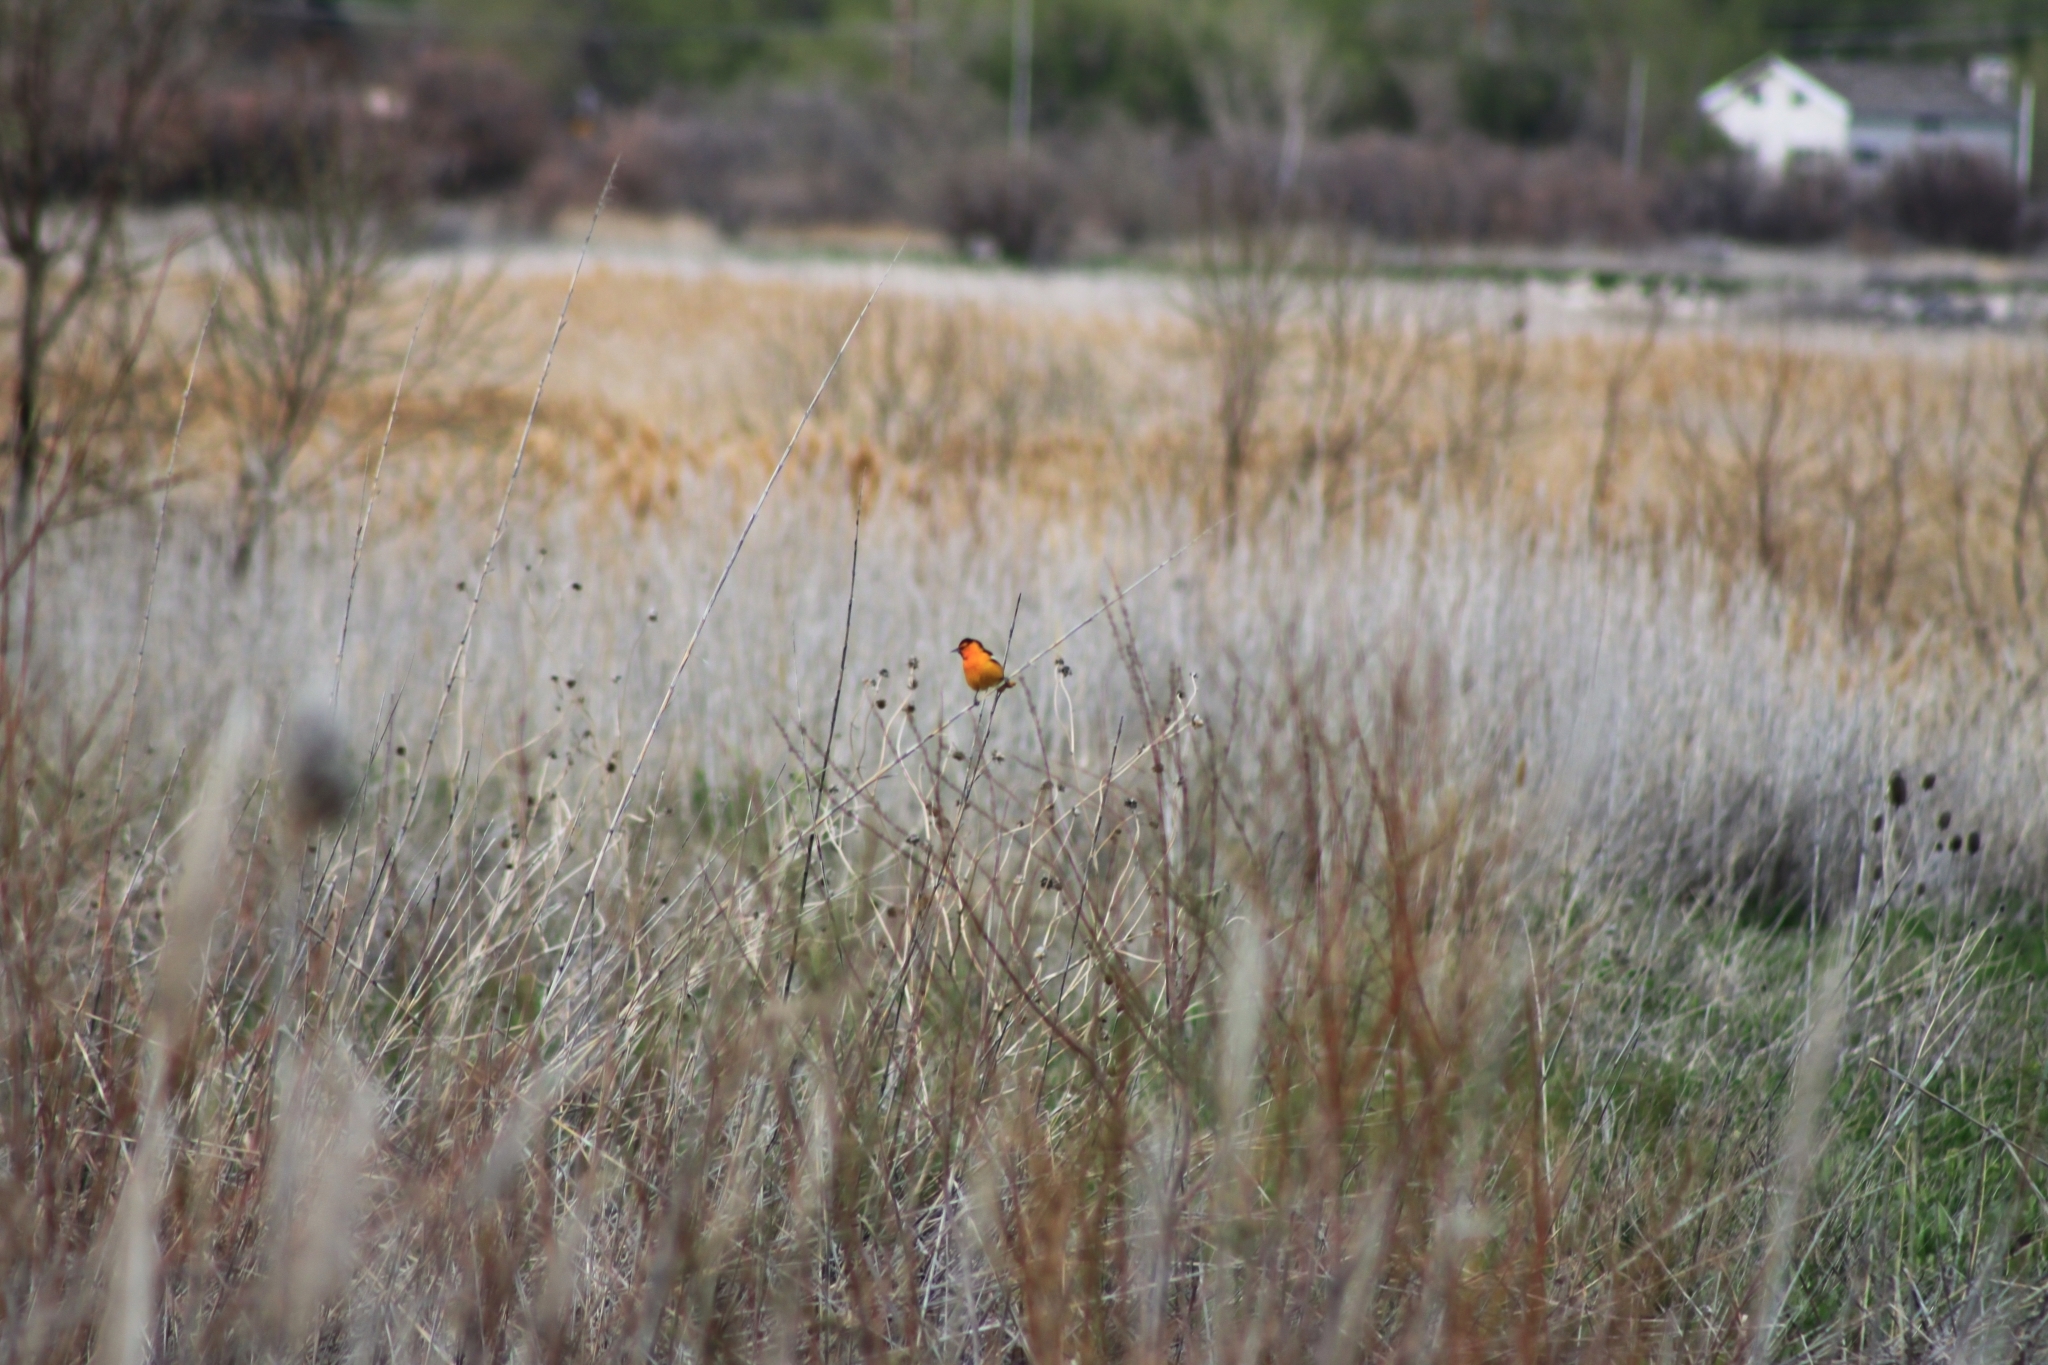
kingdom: Animalia
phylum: Chordata
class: Aves
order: Passeriformes
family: Icteridae
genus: Icterus
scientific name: Icterus bullockii
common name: Bullock's oriole
